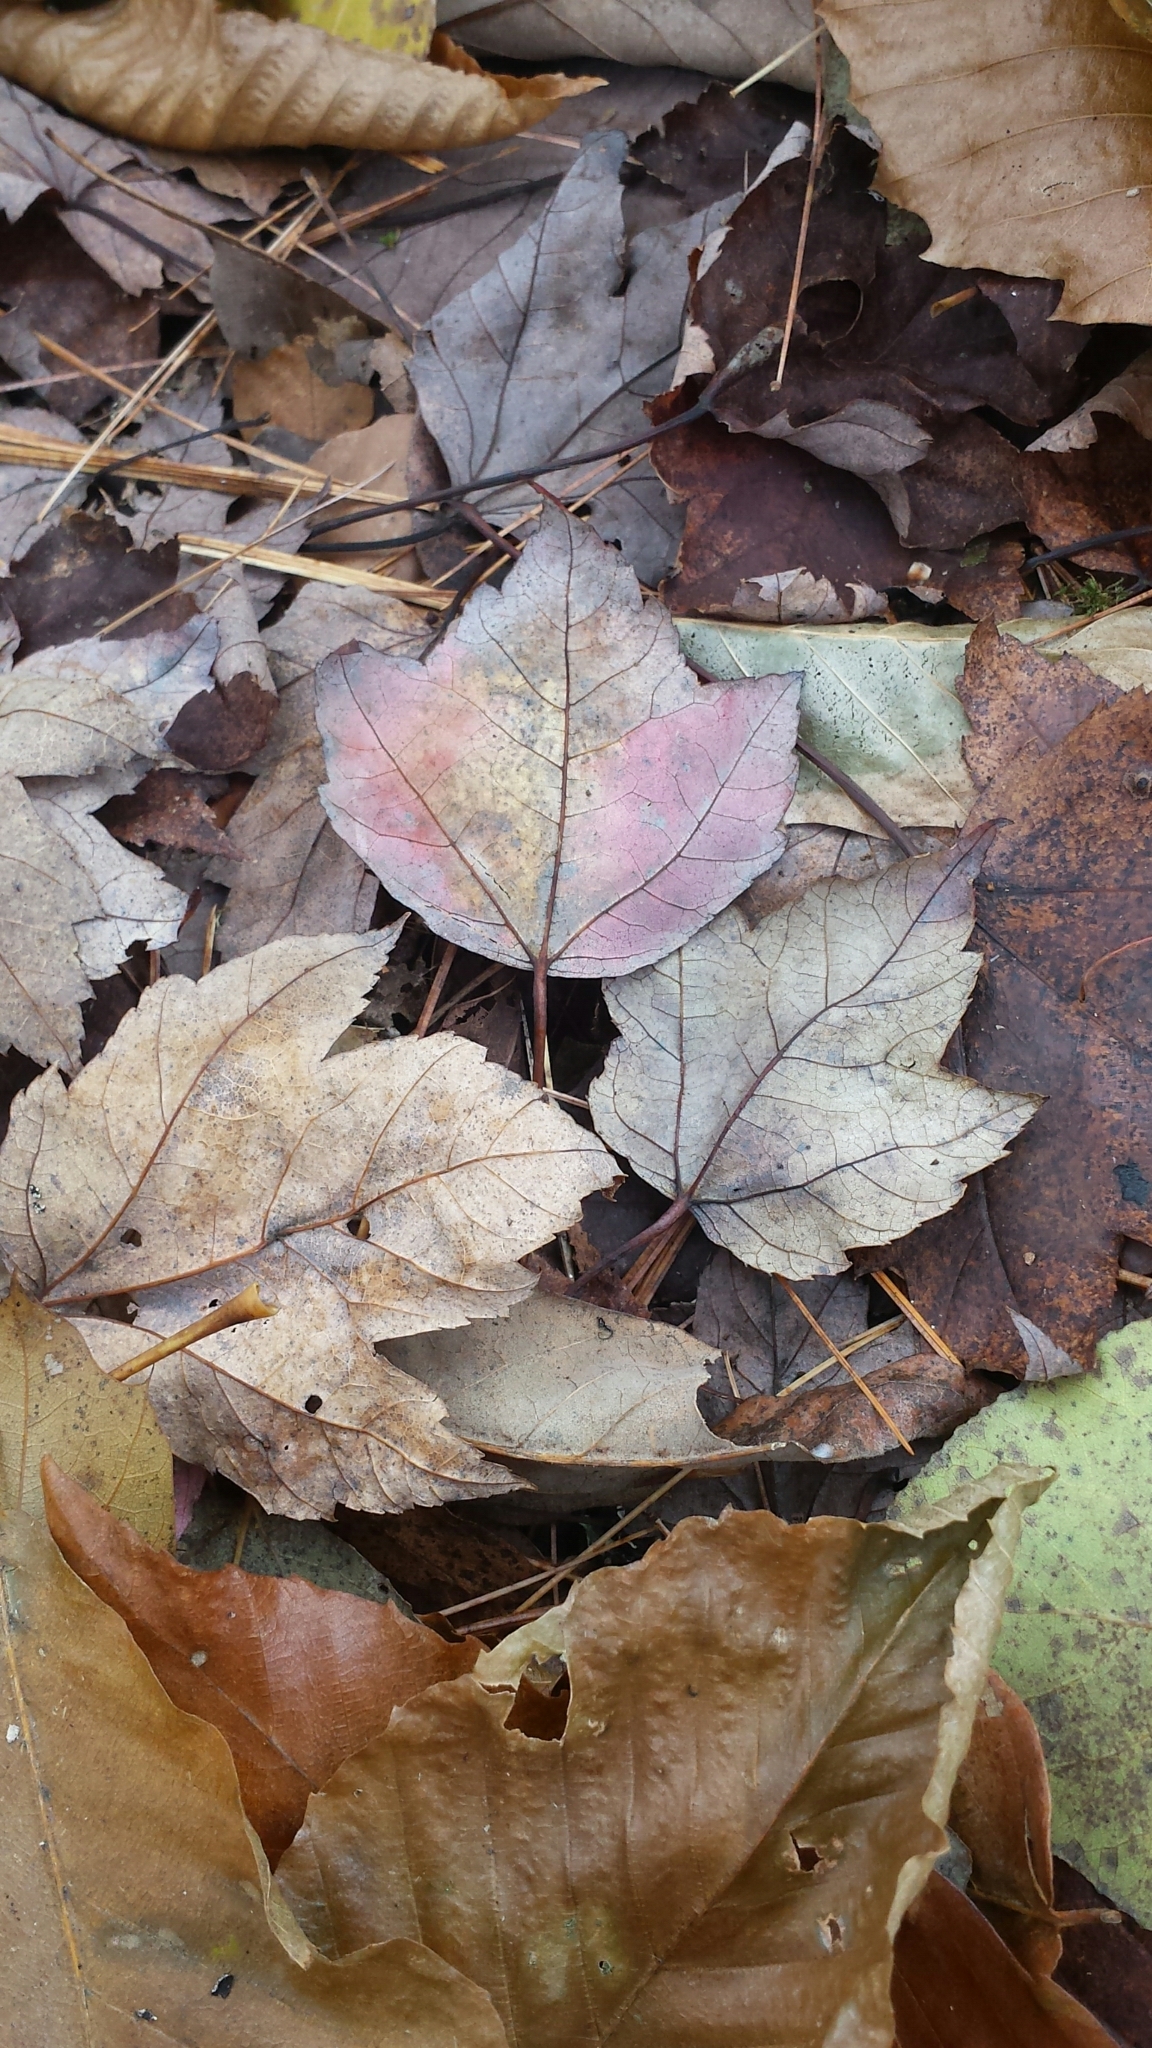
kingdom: Plantae
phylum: Tracheophyta
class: Magnoliopsida
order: Sapindales
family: Sapindaceae
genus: Acer
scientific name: Acer rubrum
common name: Red maple
